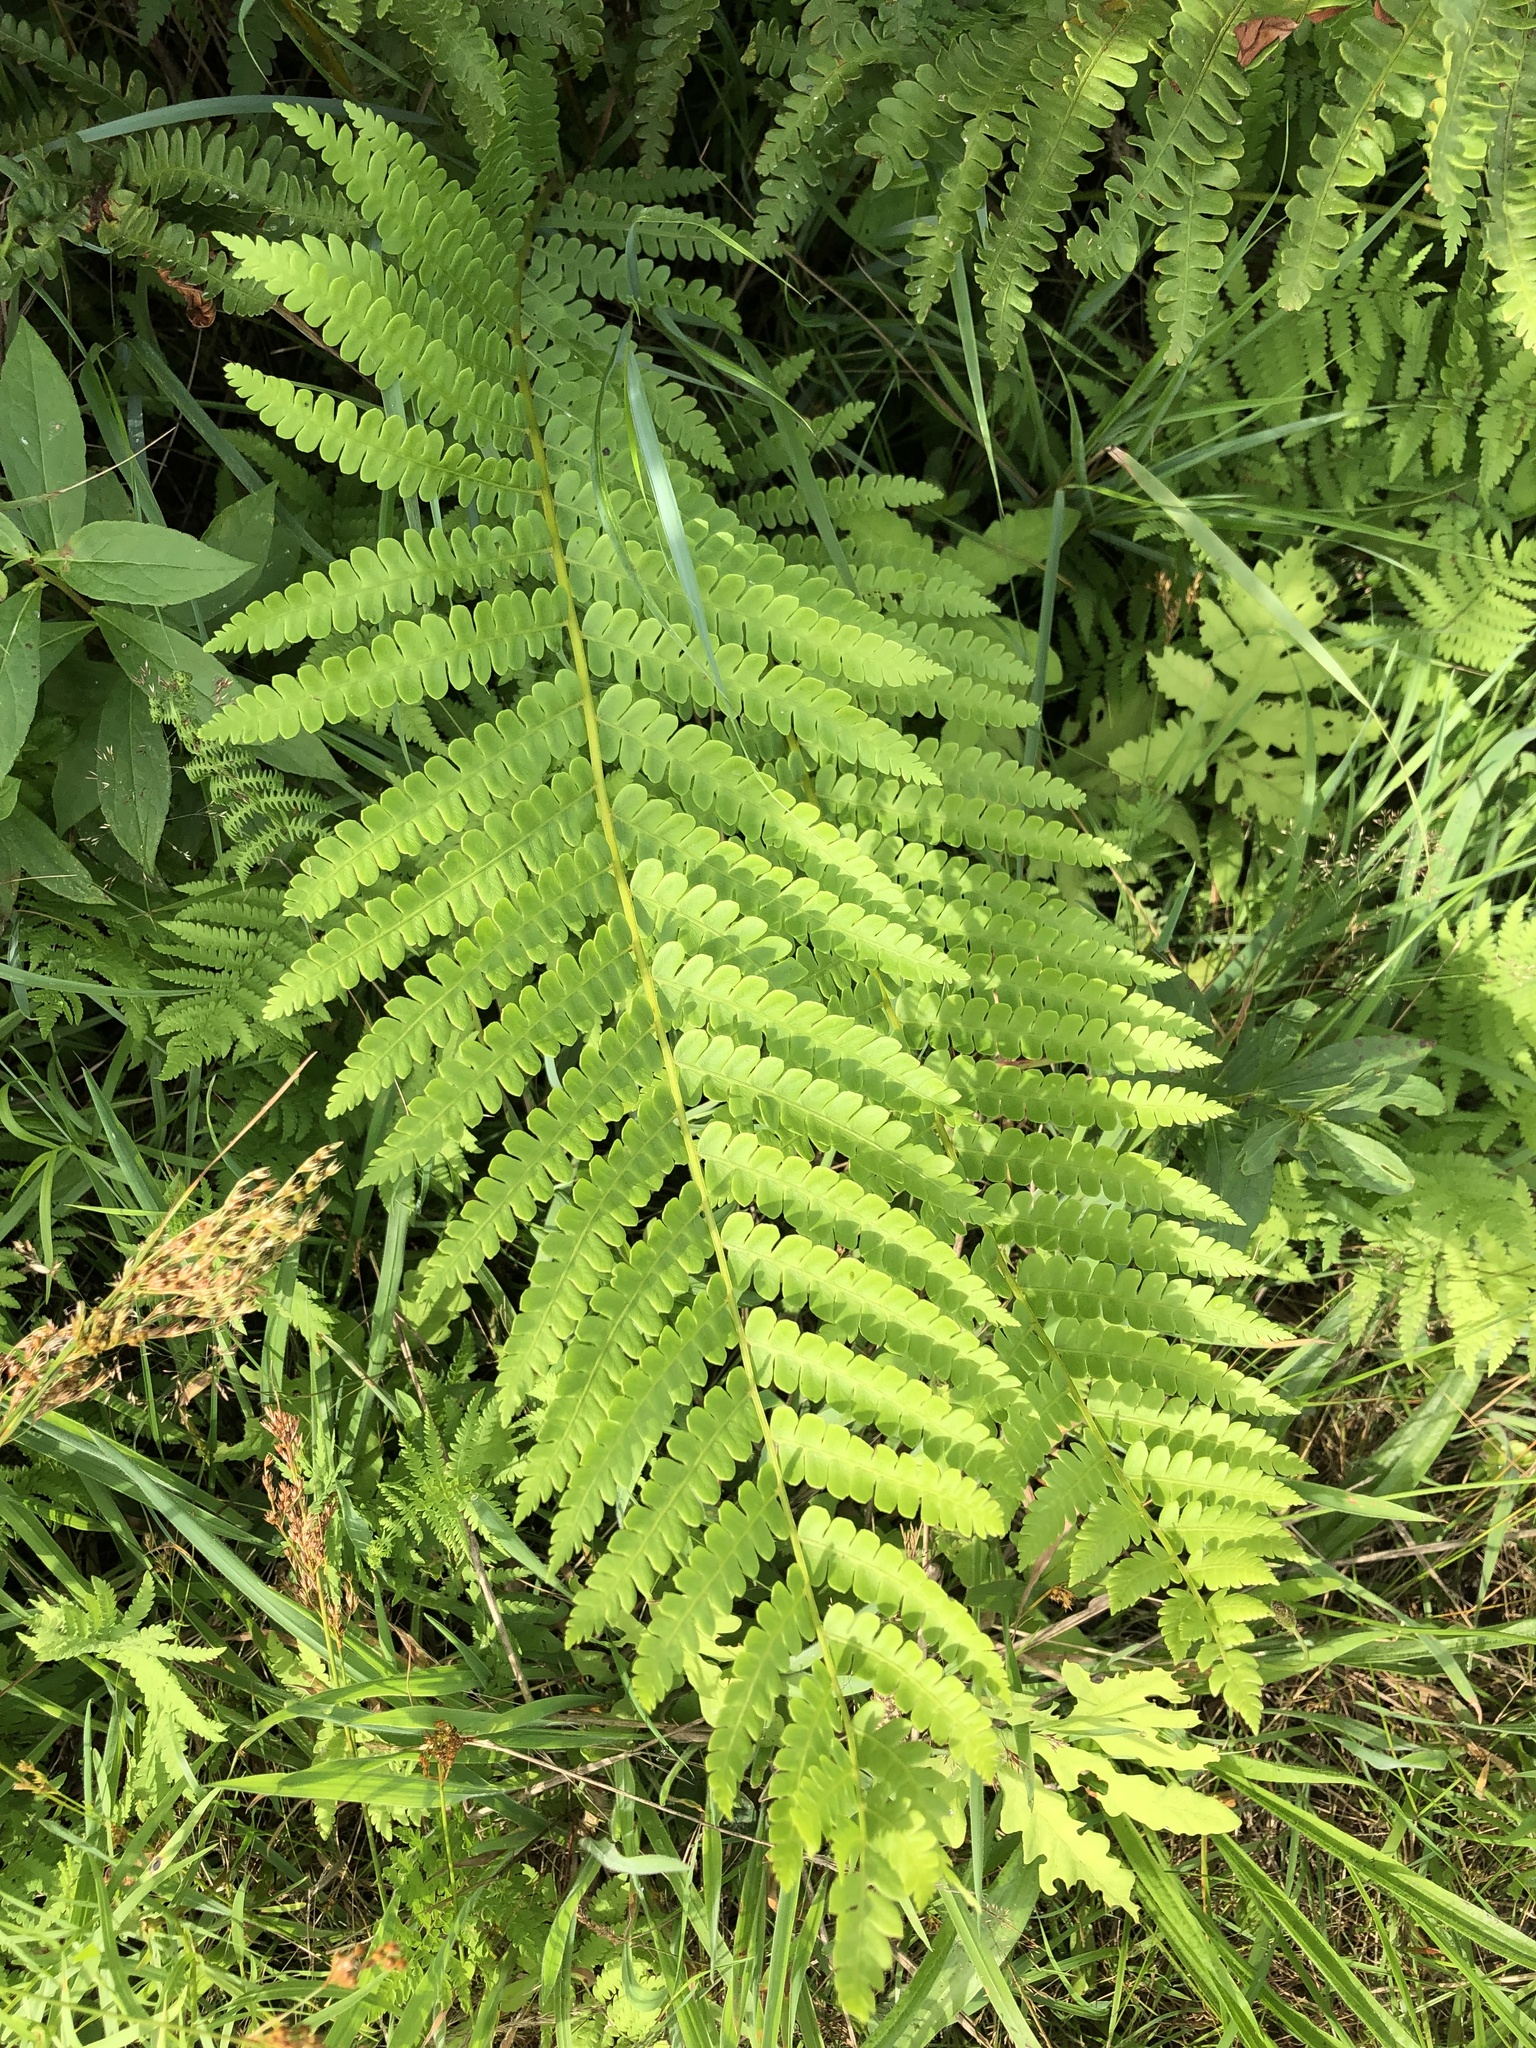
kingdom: Plantae
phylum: Tracheophyta
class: Polypodiopsida
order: Osmundales
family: Osmundaceae
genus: Osmundastrum
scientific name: Osmundastrum cinnamomeum
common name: Cinnamon fern
